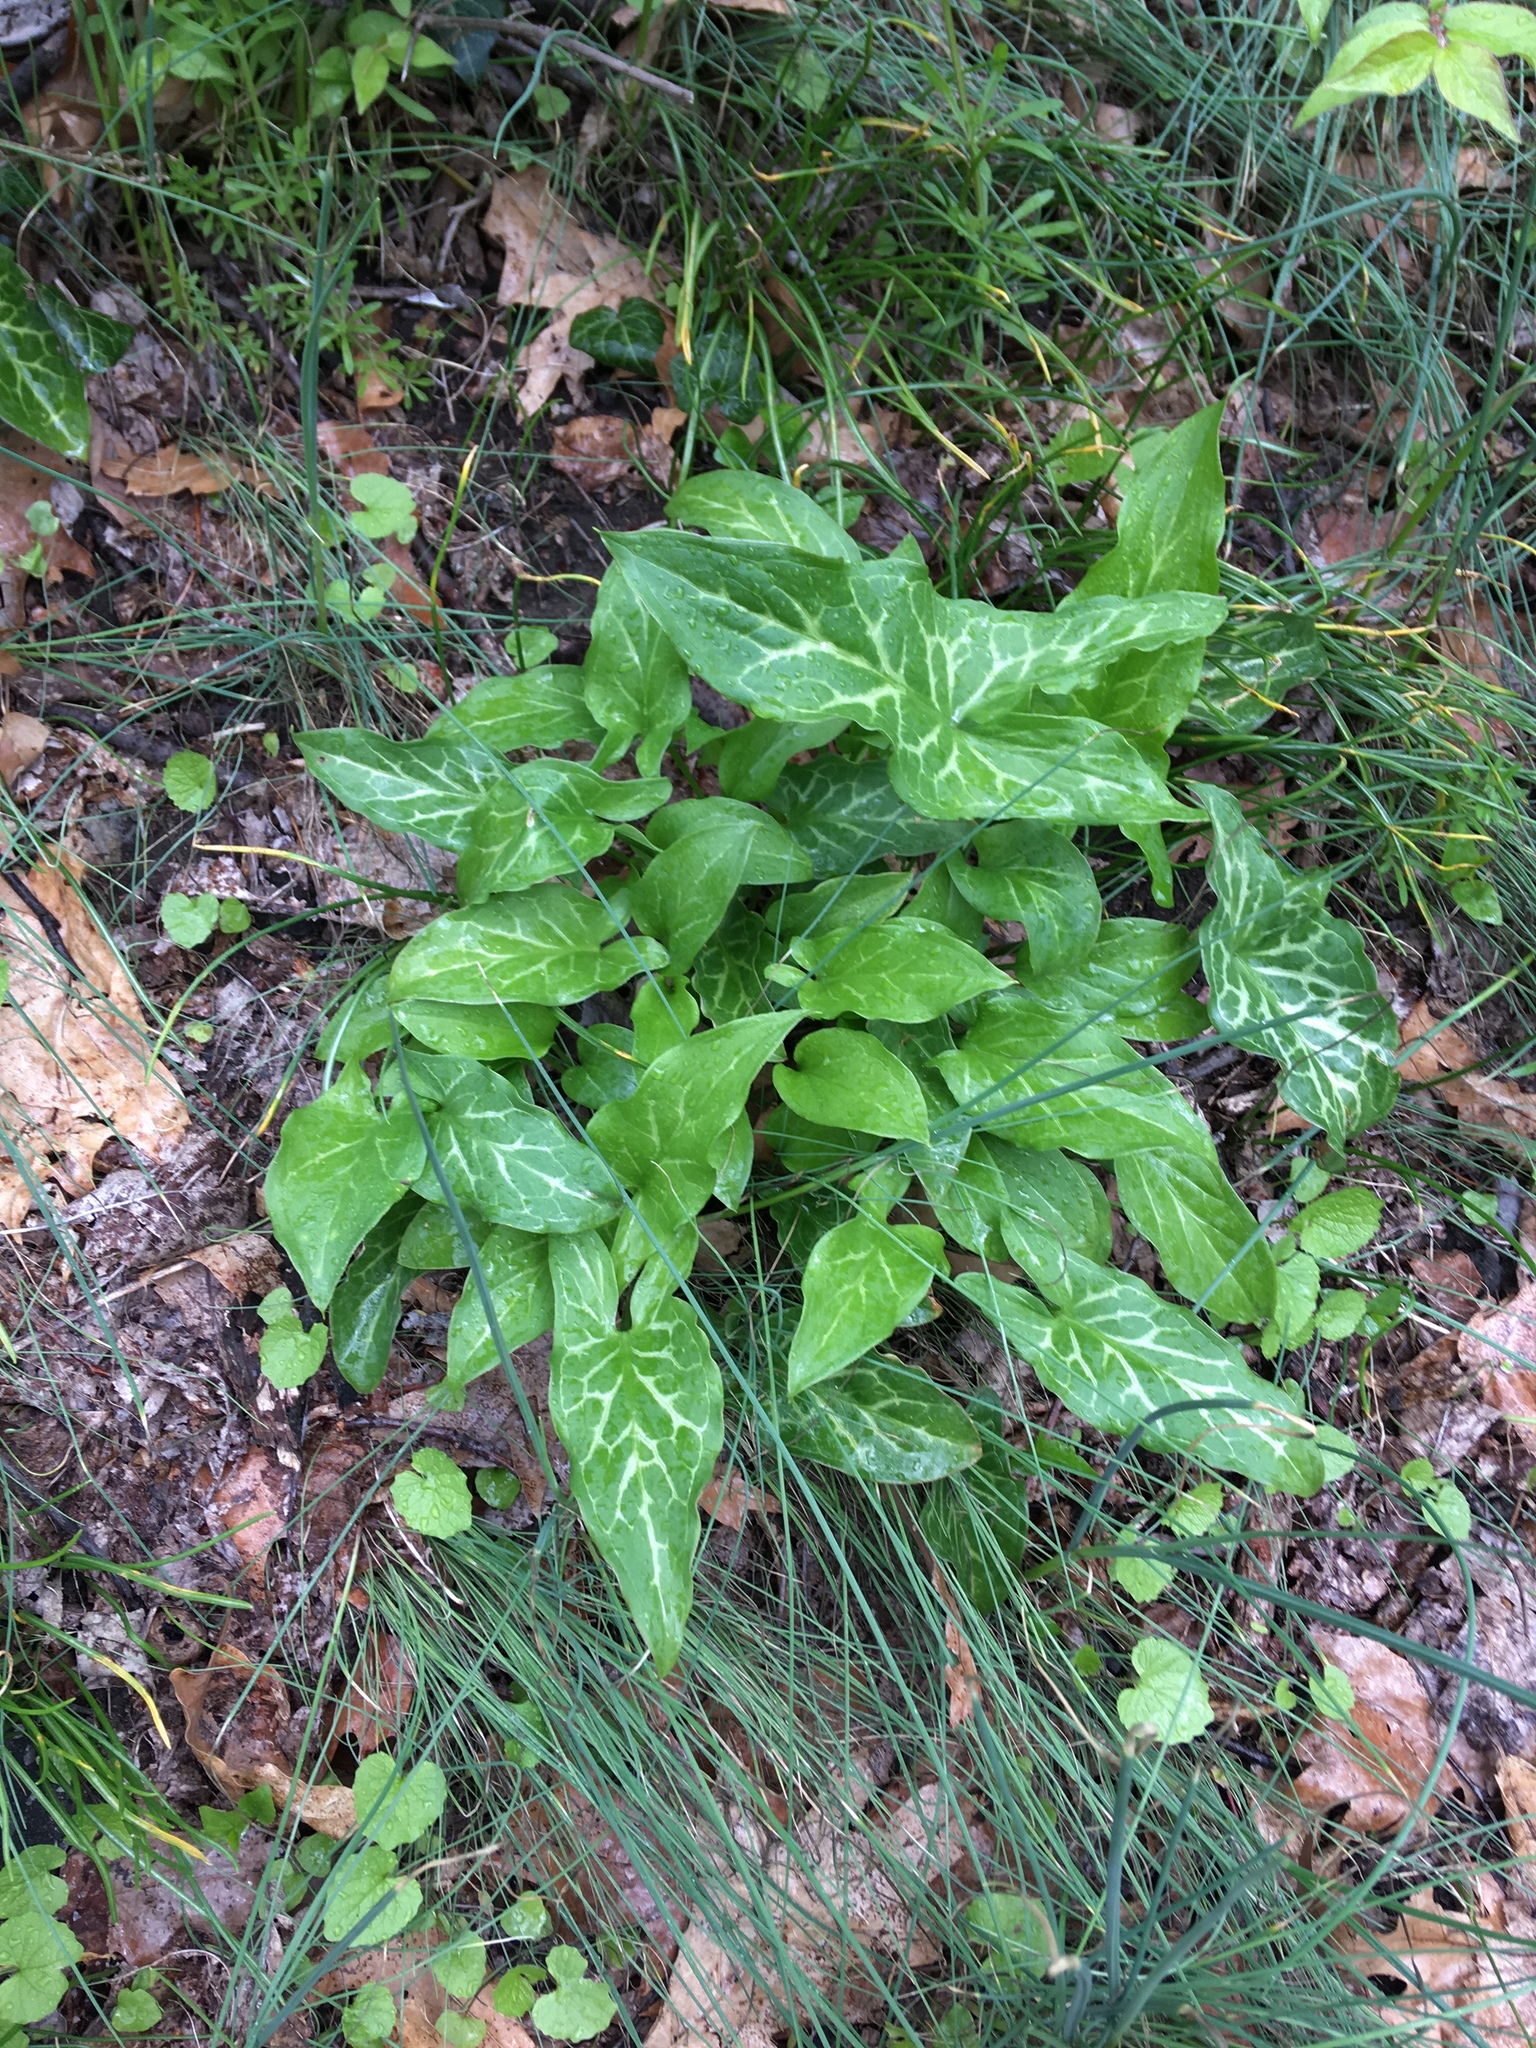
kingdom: Plantae
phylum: Tracheophyta
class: Liliopsida
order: Alismatales
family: Araceae
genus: Arum
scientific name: Arum italicum
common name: Italian lords-and-ladies
